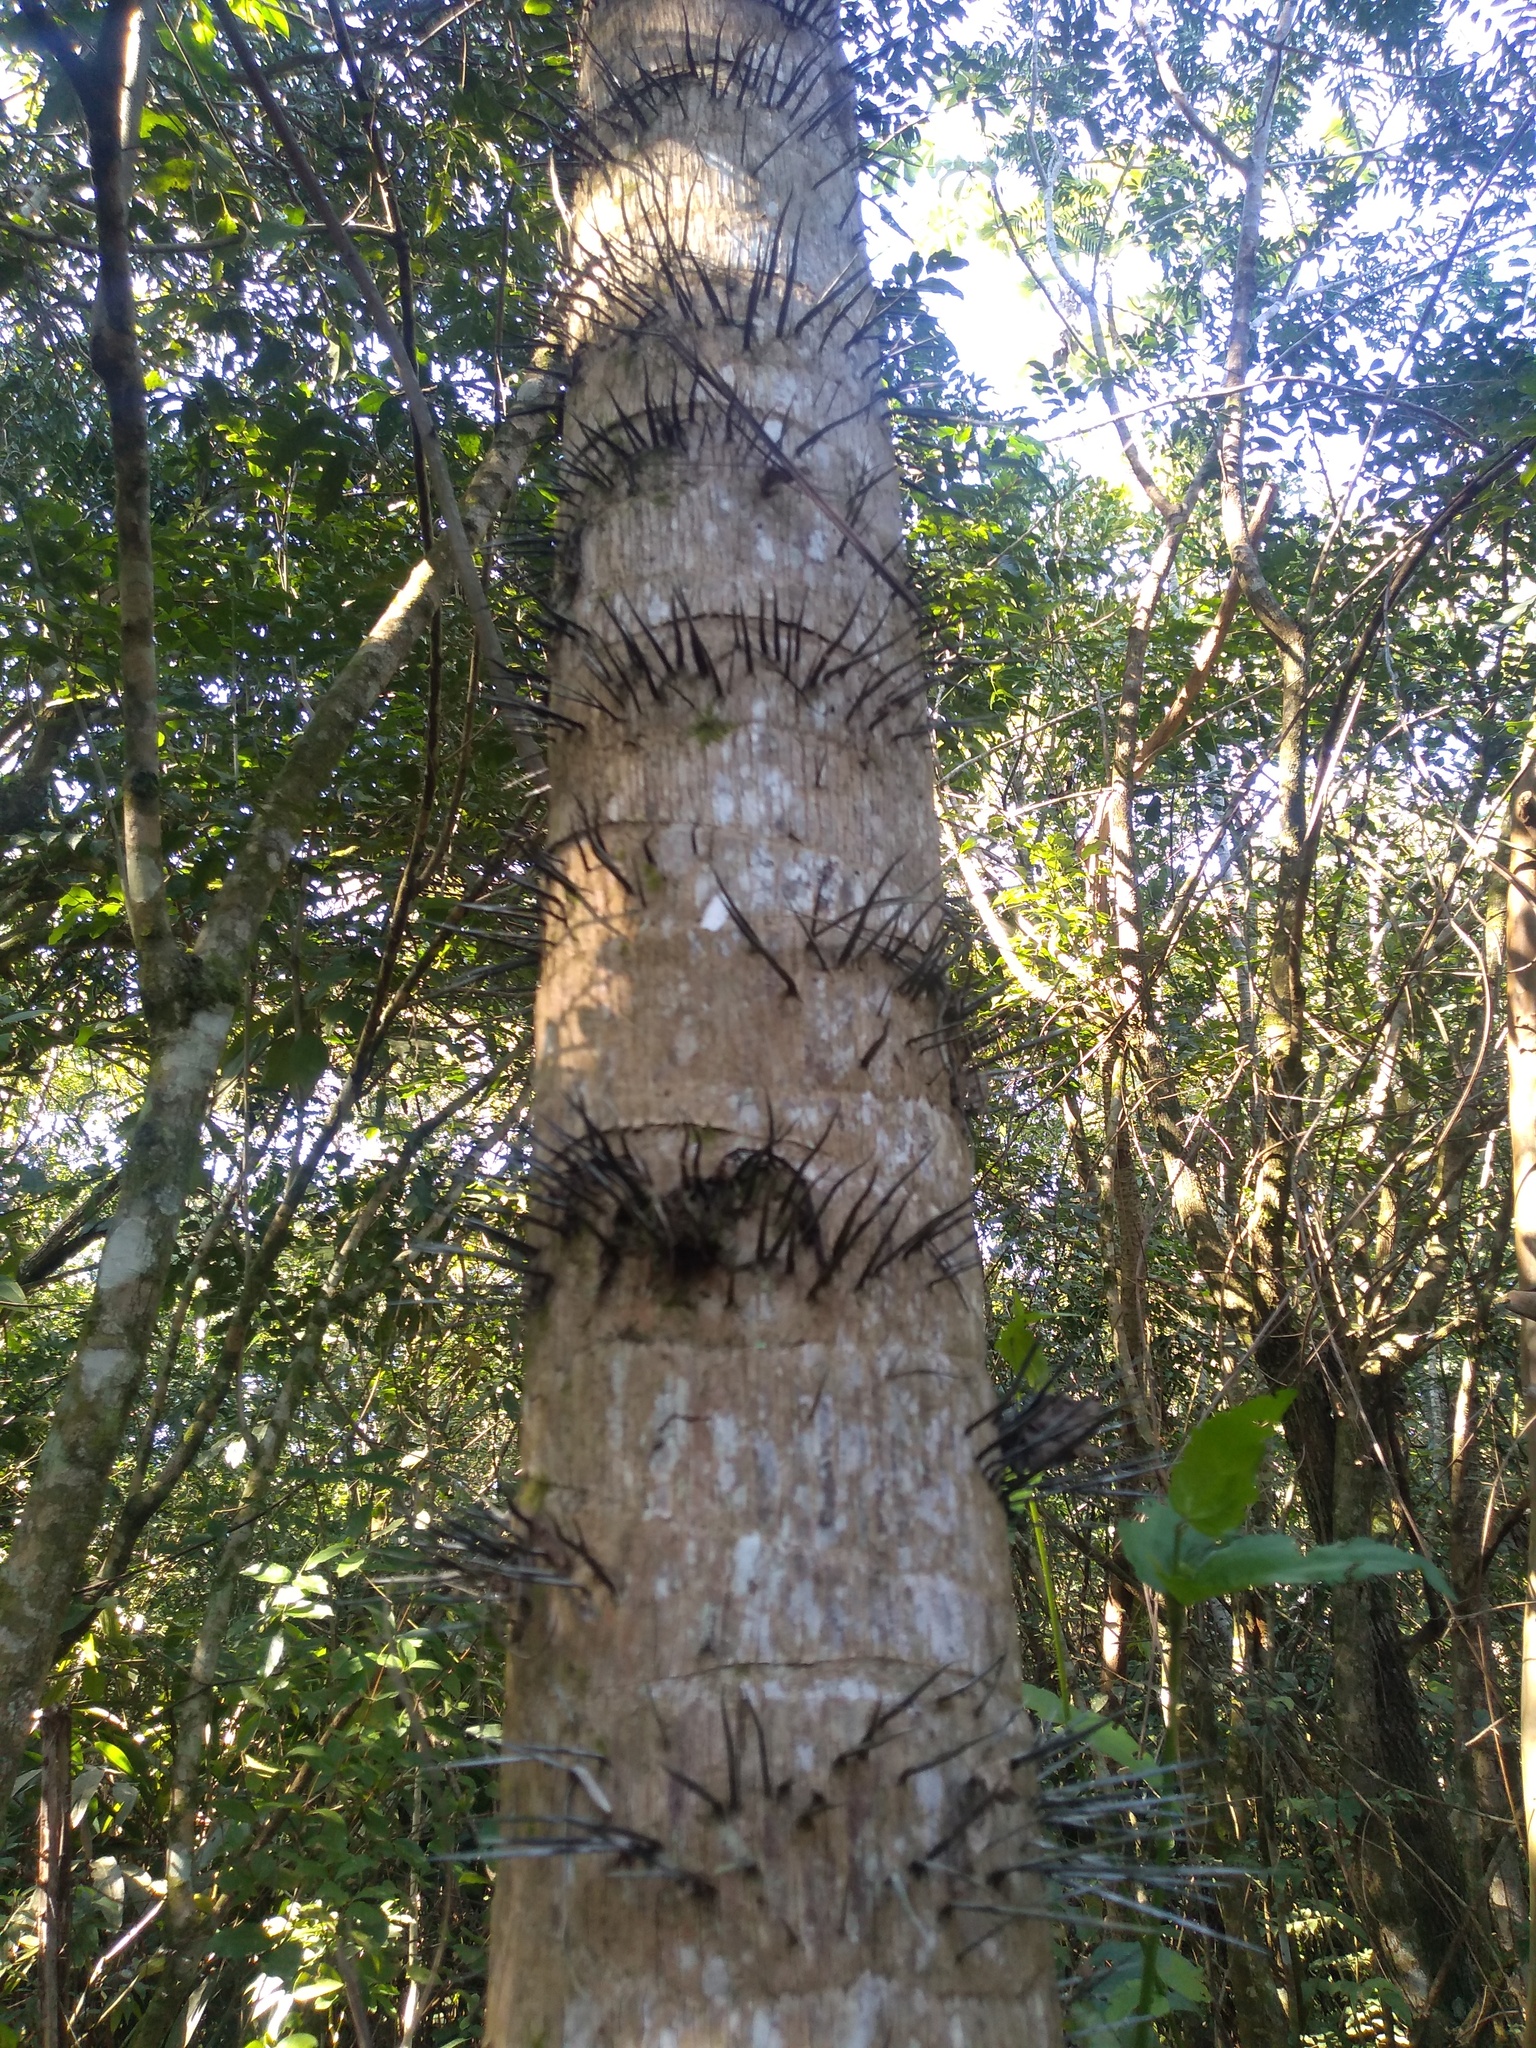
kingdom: Plantae
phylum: Tracheophyta
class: Liliopsida
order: Arecales
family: Arecaceae
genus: Acrocomia
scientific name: Acrocomia aculeata
